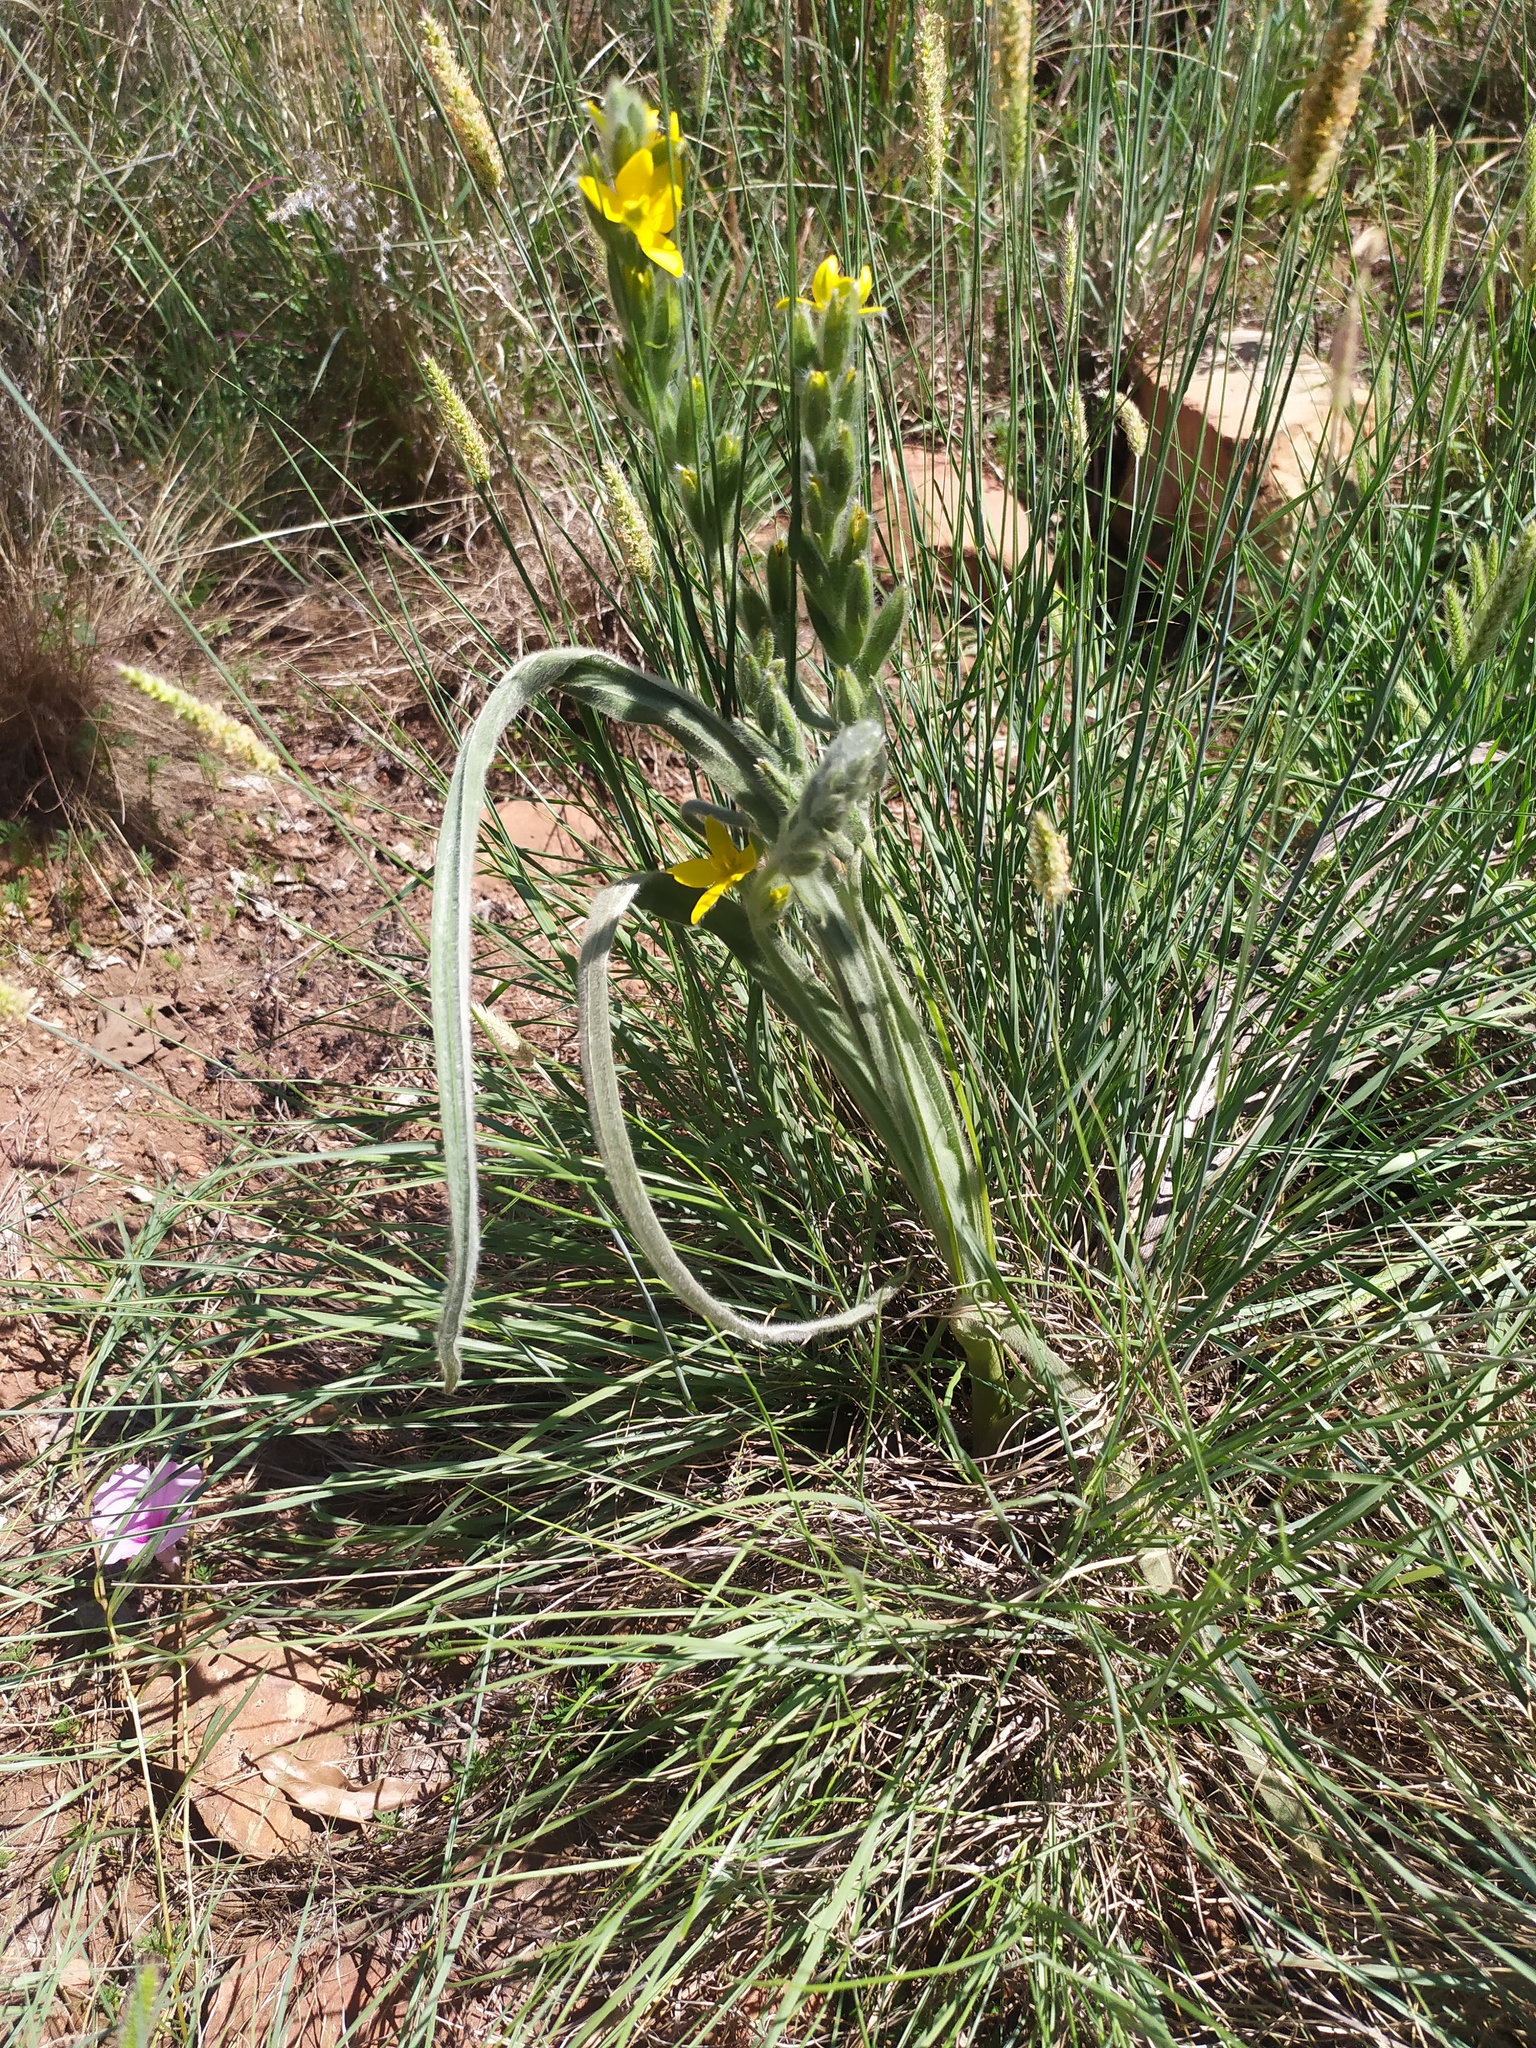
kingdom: Plantae
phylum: Tracheophyta
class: Liliopsida
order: Asparagales
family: Hypoxidaceae
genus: Hypoxis
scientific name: Hypoxis rigidula
